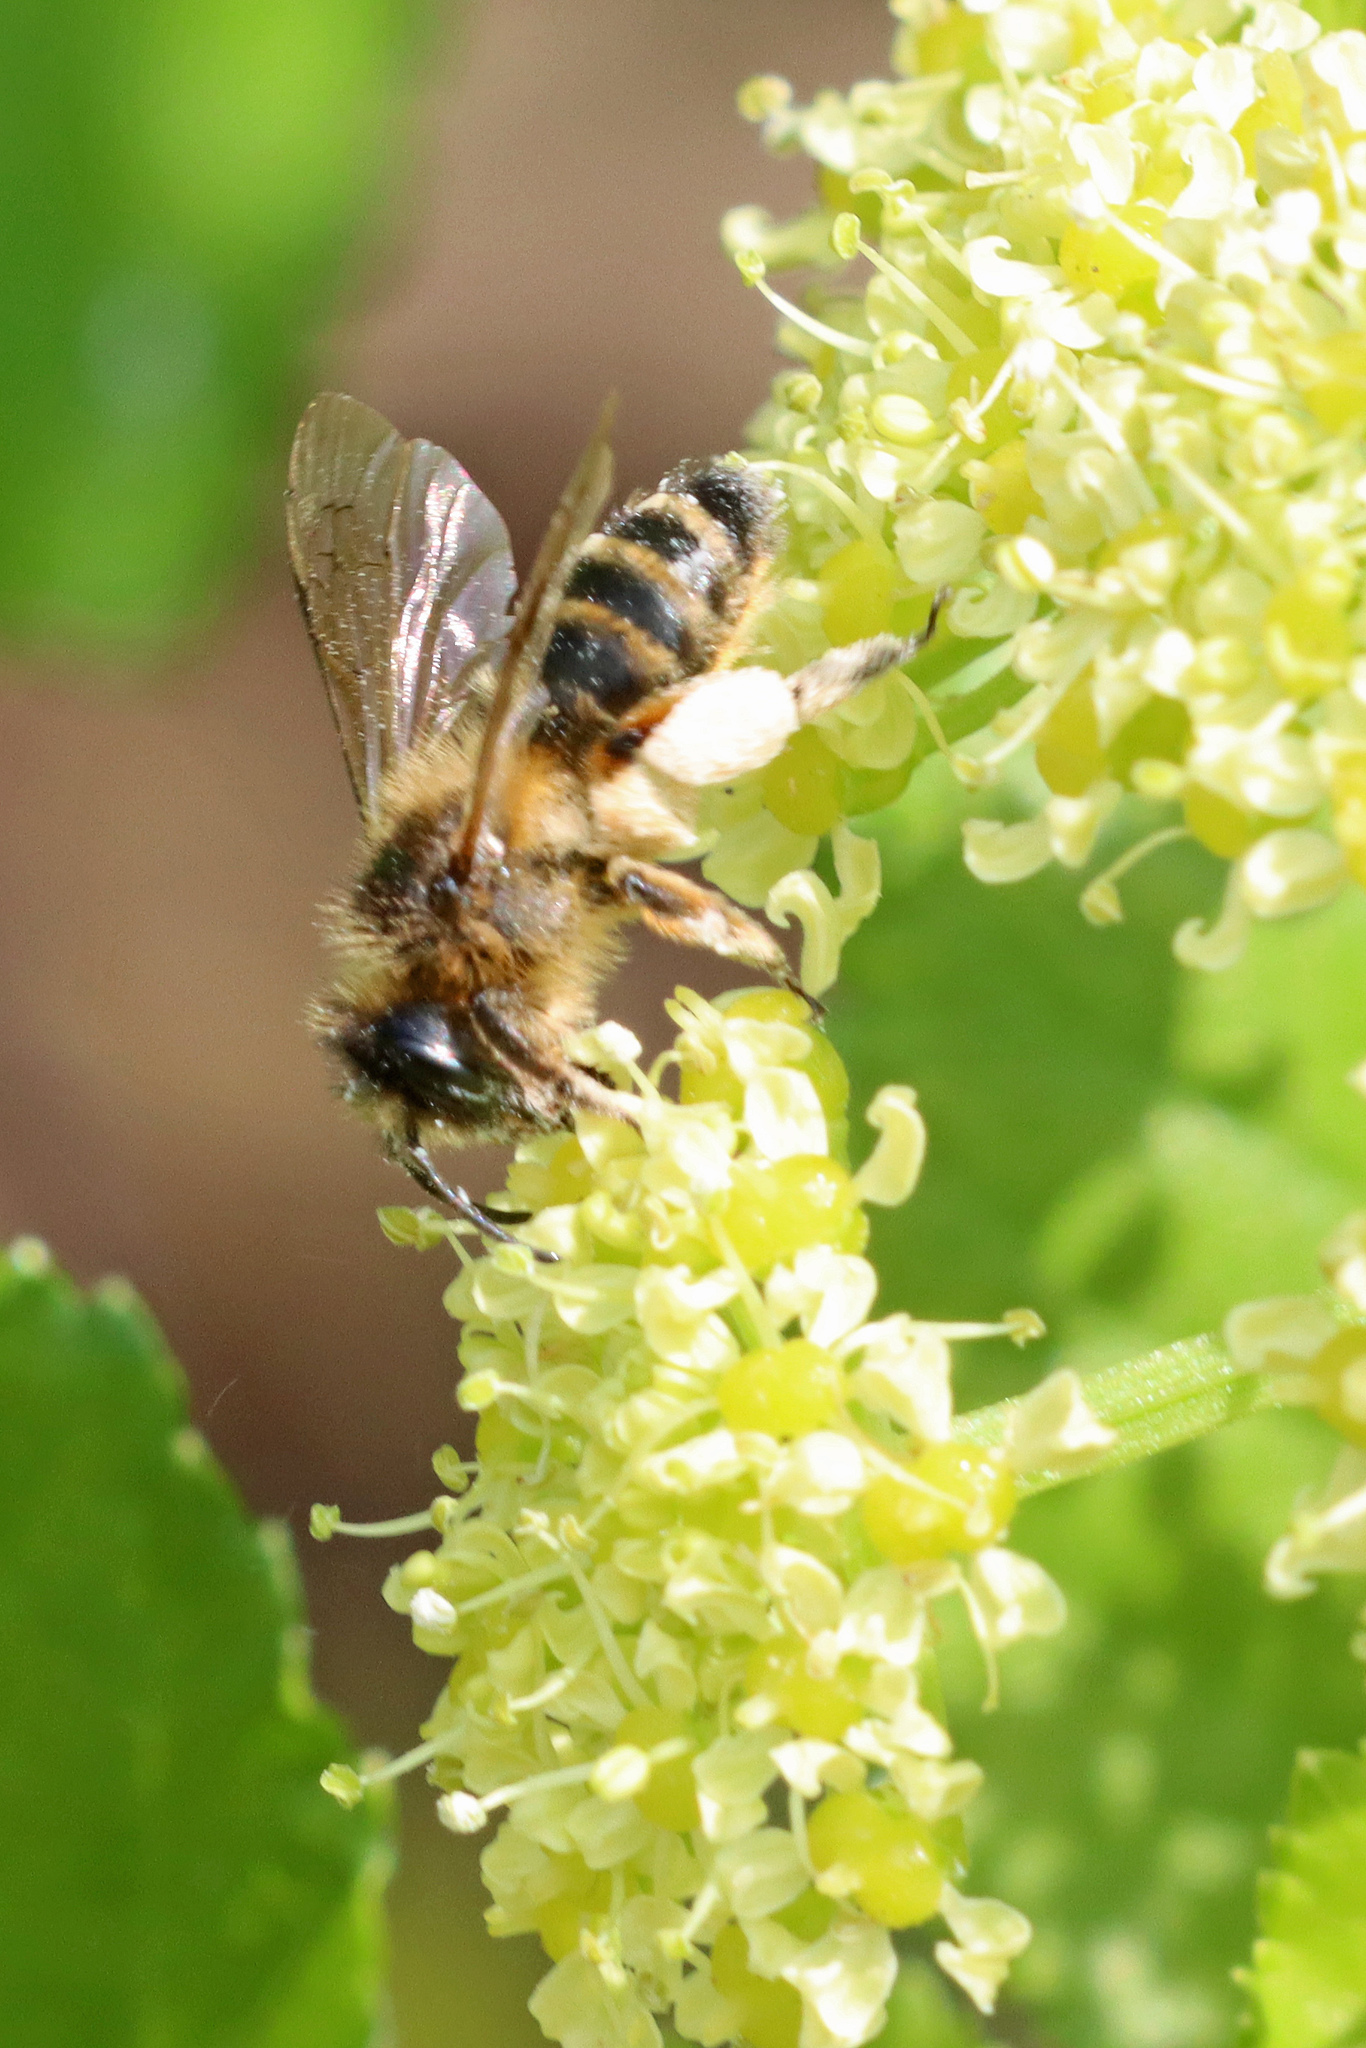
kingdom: Animalia
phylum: Arthropoda
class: Insecta
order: Hymenoptera
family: Andrenidae
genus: Andrena
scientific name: Andrena flavipes
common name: Yellow-legged mining bee
